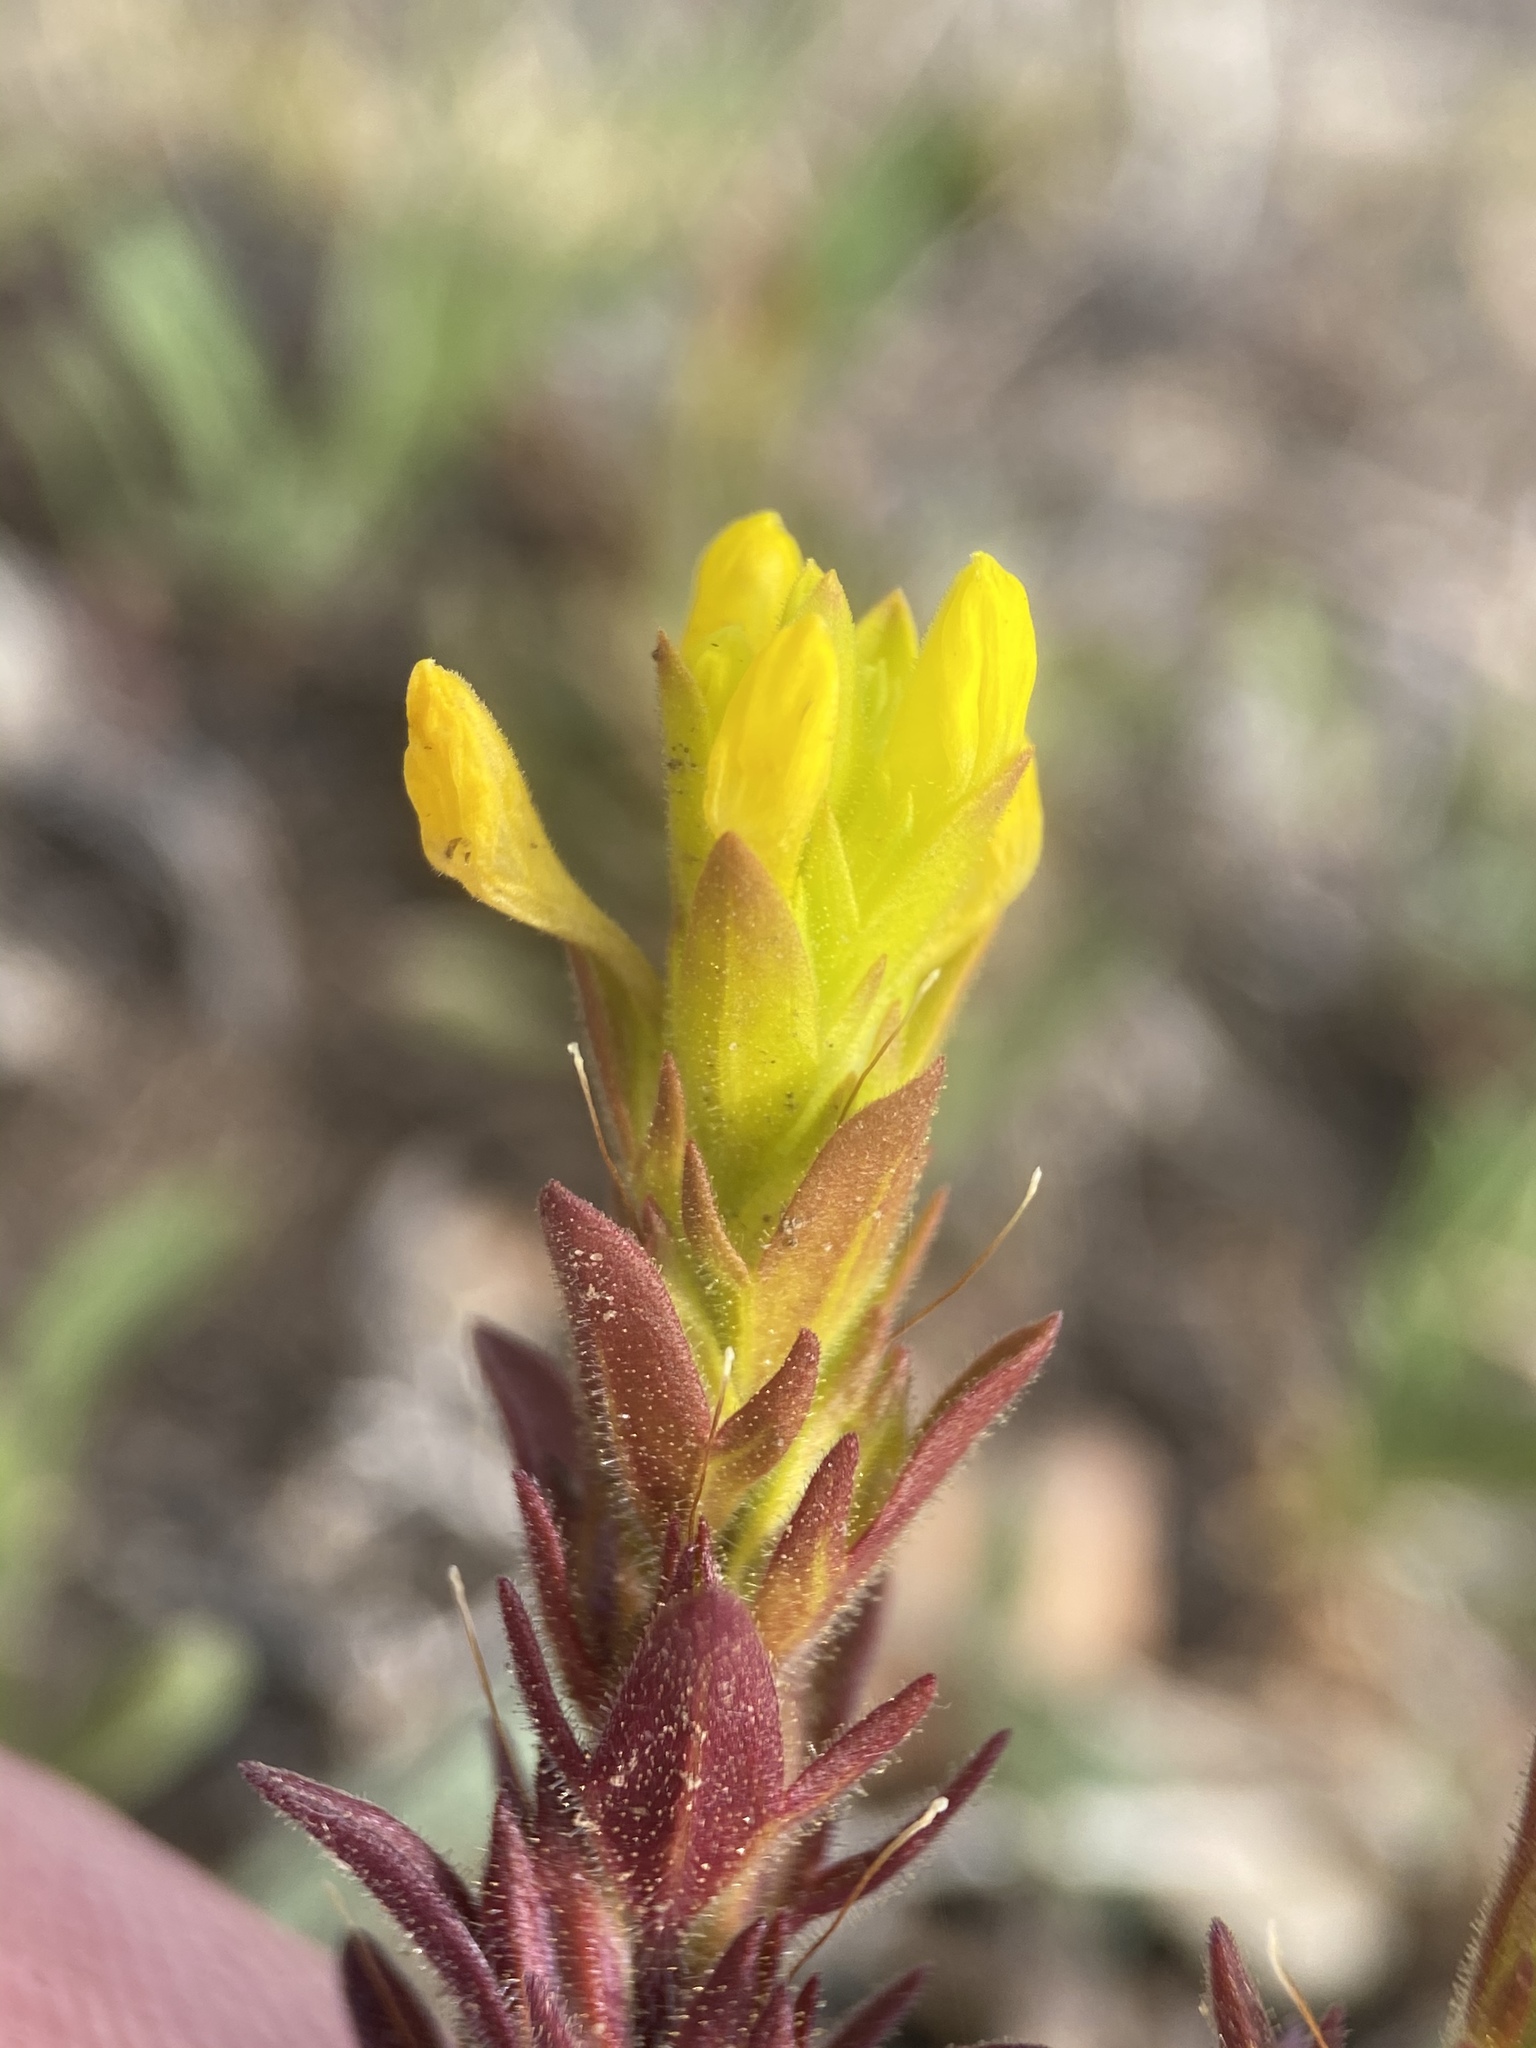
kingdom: Plantae
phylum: Tracheophyta
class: Magnoliopsida
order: Lamiales
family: Orobanchaceae
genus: Orthocarpus
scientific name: Orthocarpus luteus
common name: Golden-tongue owl's-clover
